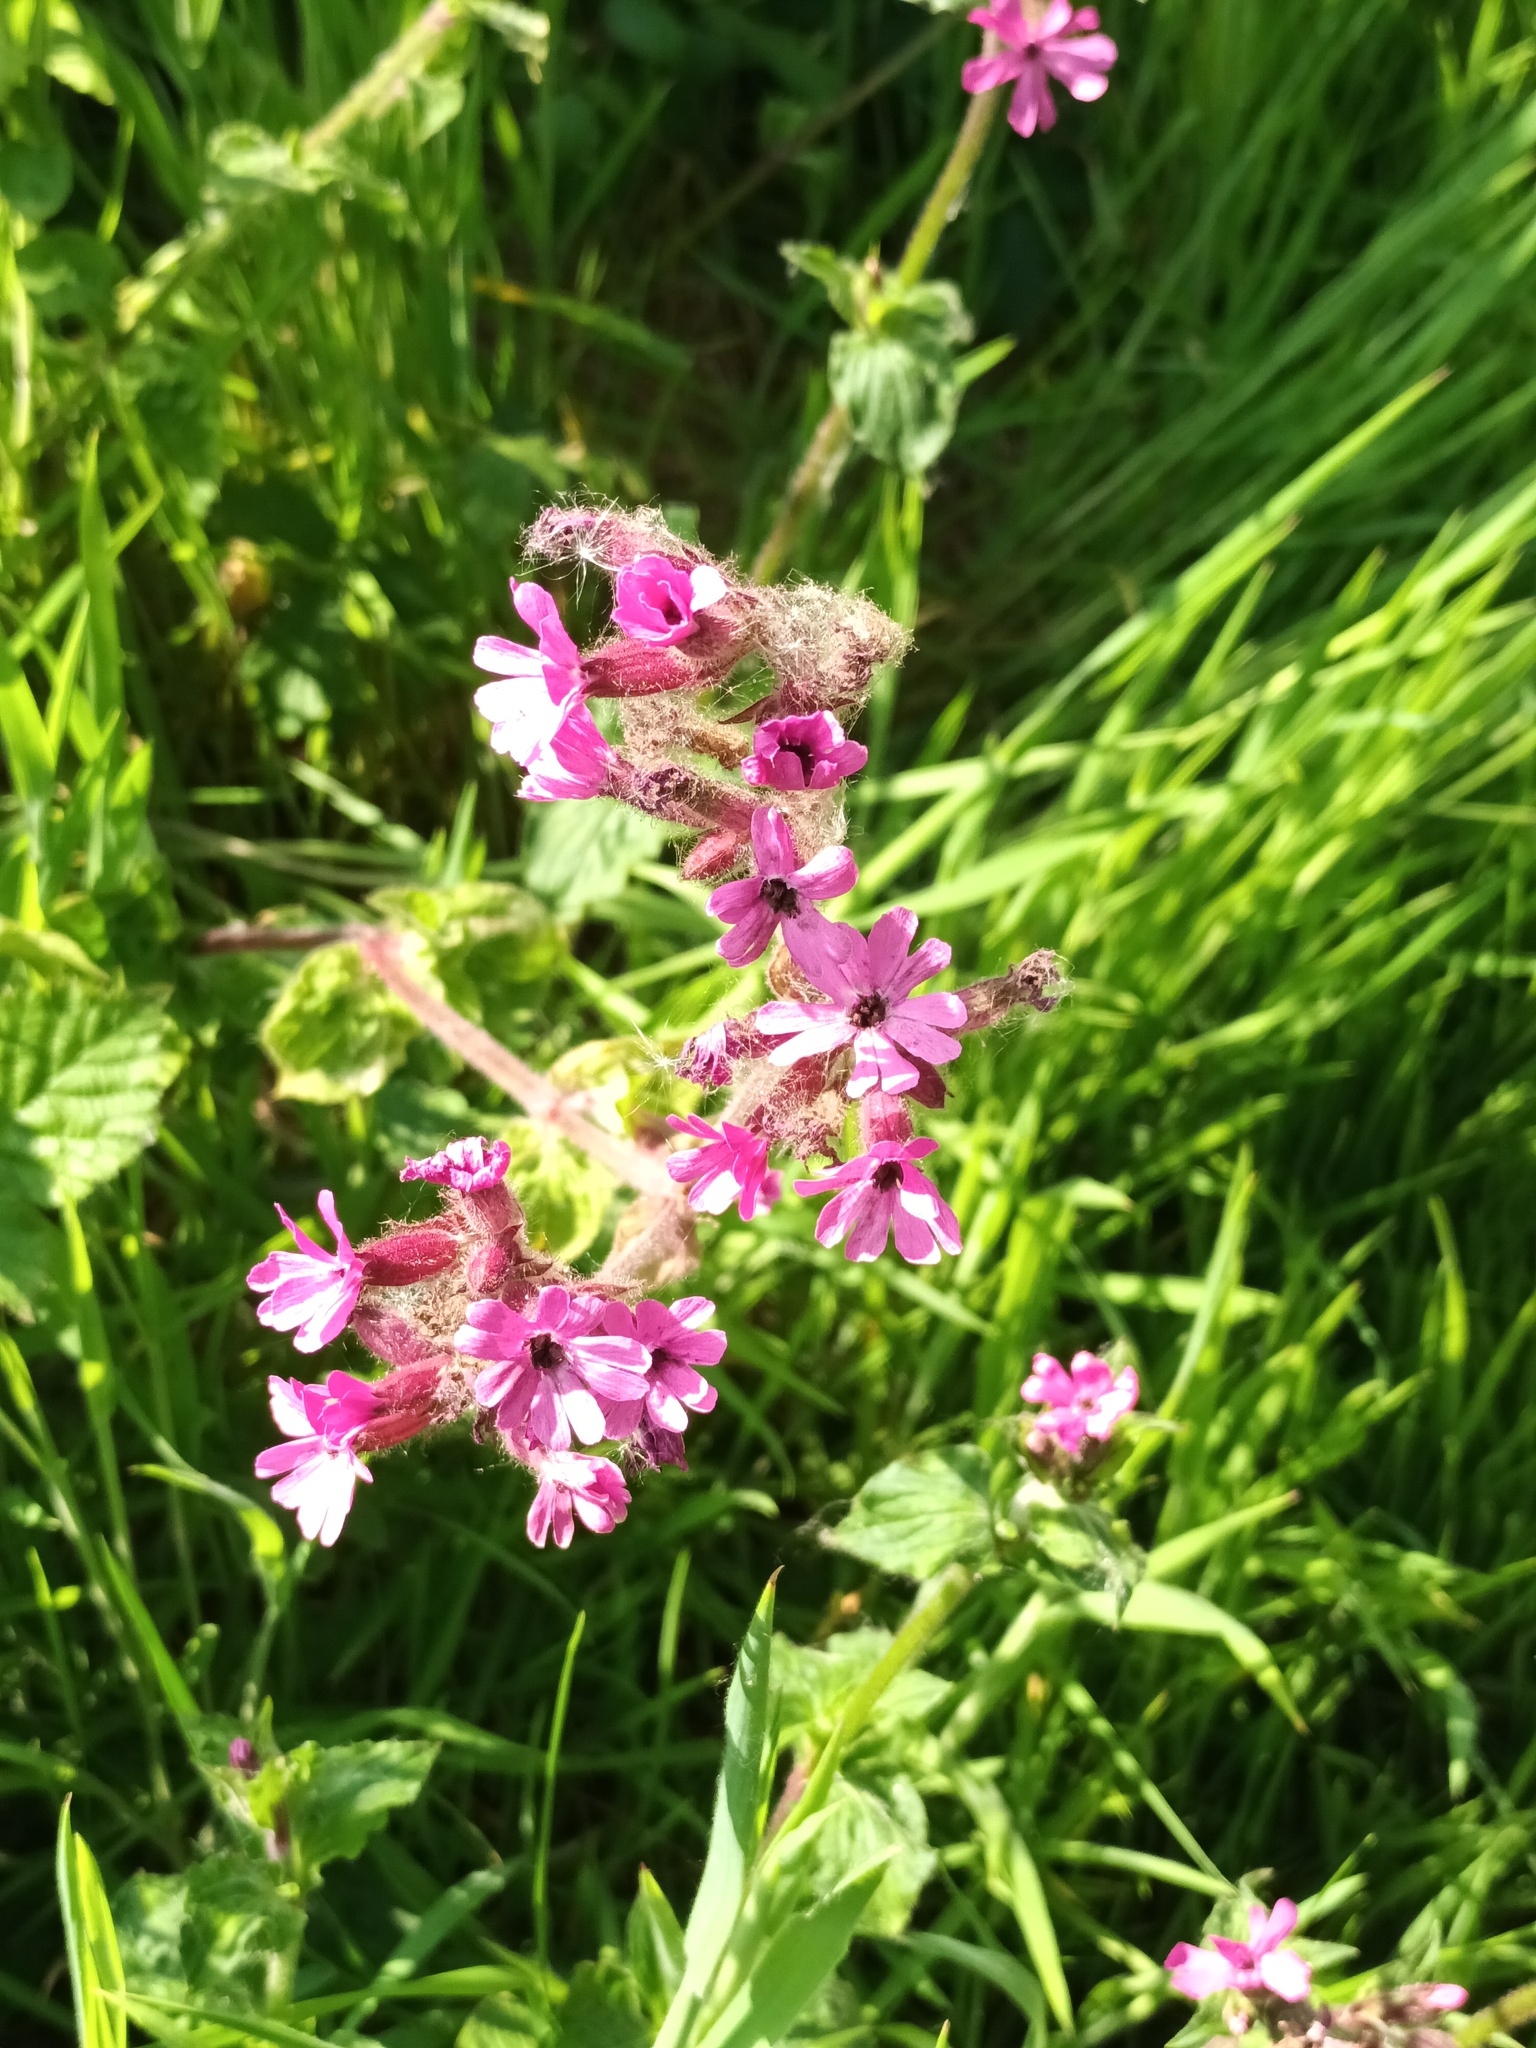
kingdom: Plantae
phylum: Tracheophyta
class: Magnoliopsida
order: Caryophyllales
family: Caryophyllaceae
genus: Silene
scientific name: Silene dioica
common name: Red campion
